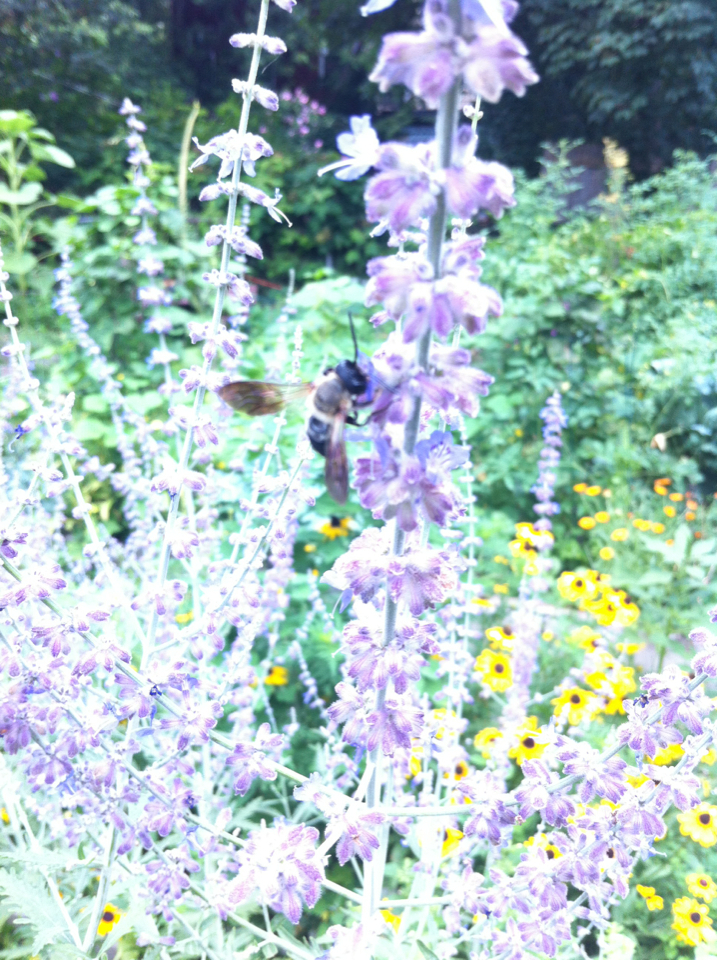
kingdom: Animalia
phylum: Arthropoda
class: Insecta
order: Hymenoptera
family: Megachilidae
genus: Megachile
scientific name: Megachile sculpturalis
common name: Sculptured resin bee
